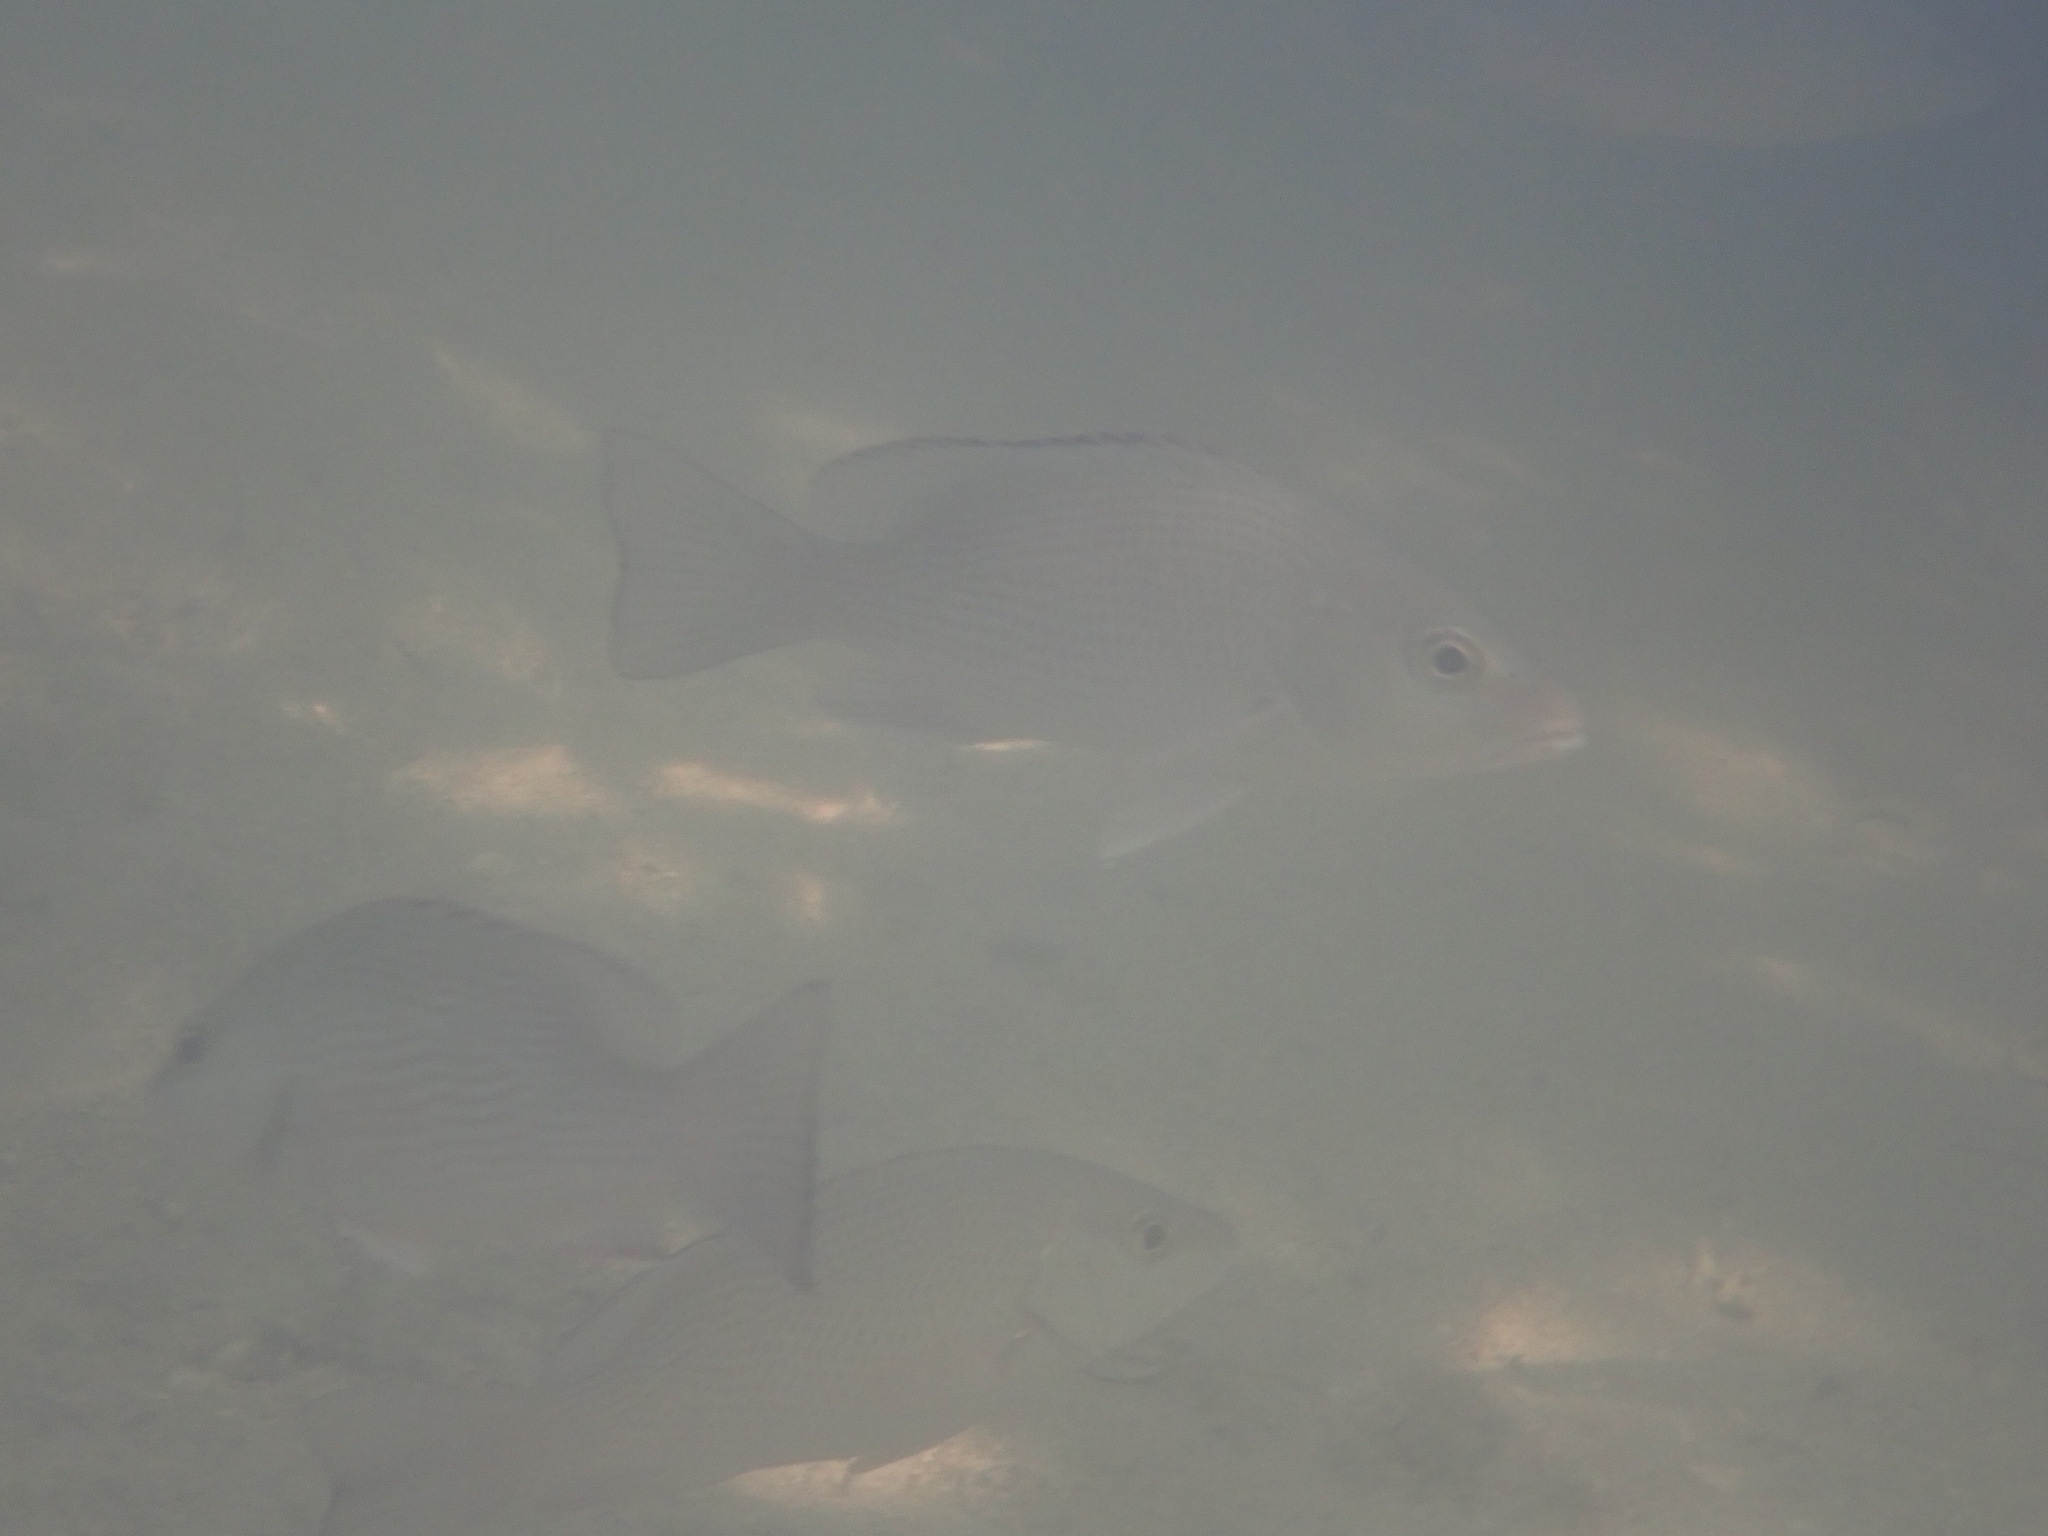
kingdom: Animalia
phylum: Chordata
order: Perciformes
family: Lutjanidae
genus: Lutjanus
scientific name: Lutjanus griseus
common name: Gray snapper
